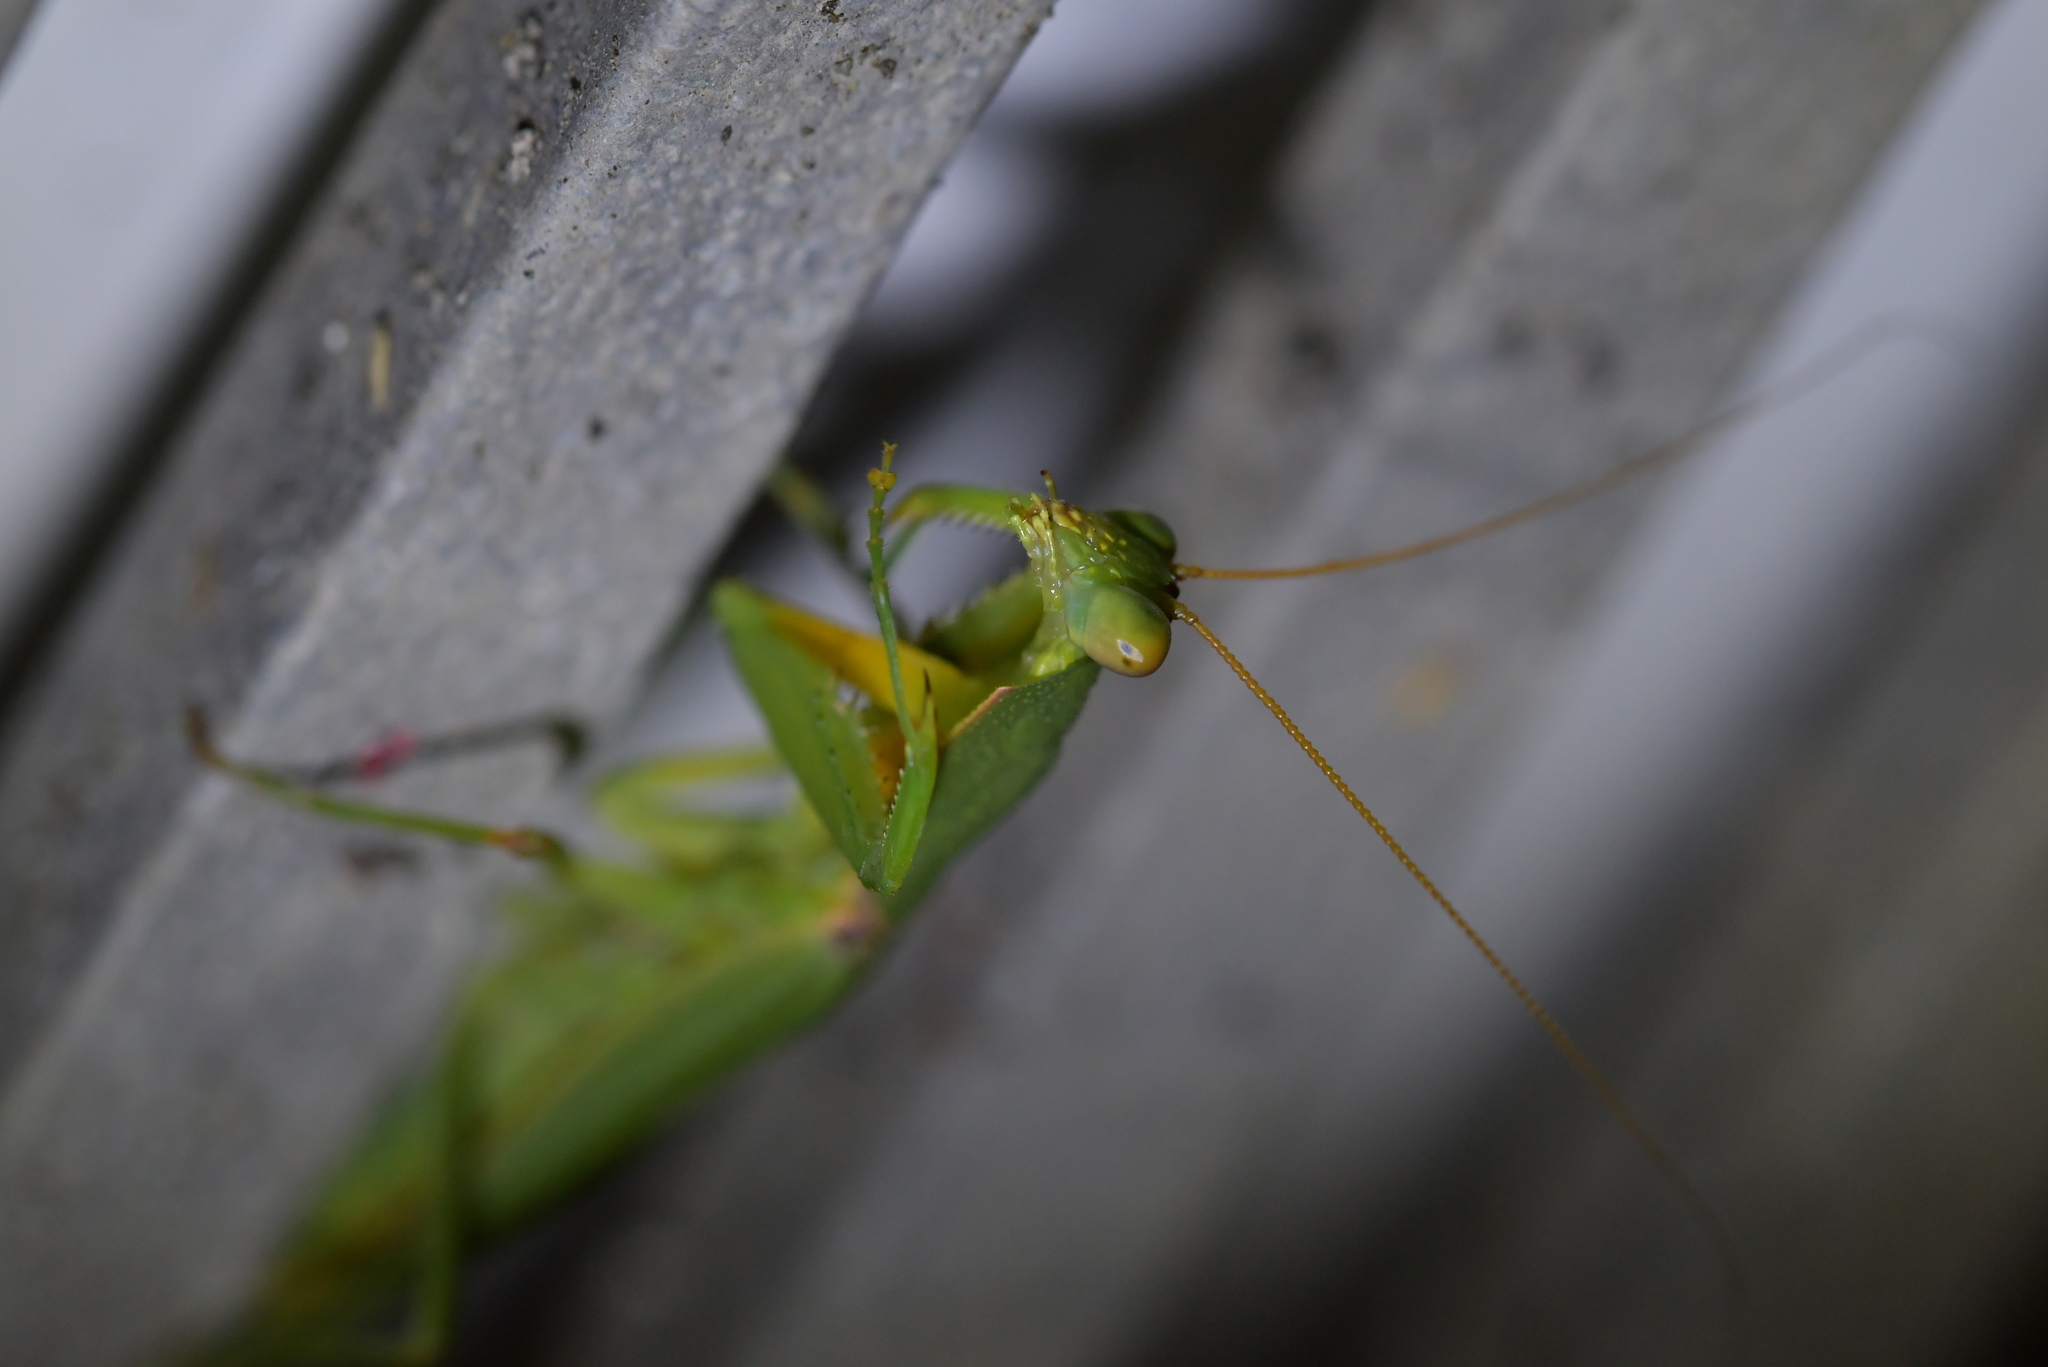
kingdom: Animalia
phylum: Arthropoda
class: Insecta
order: Mantodea
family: Mantidae
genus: Orthodera
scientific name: Orthodera novaezealandiae
